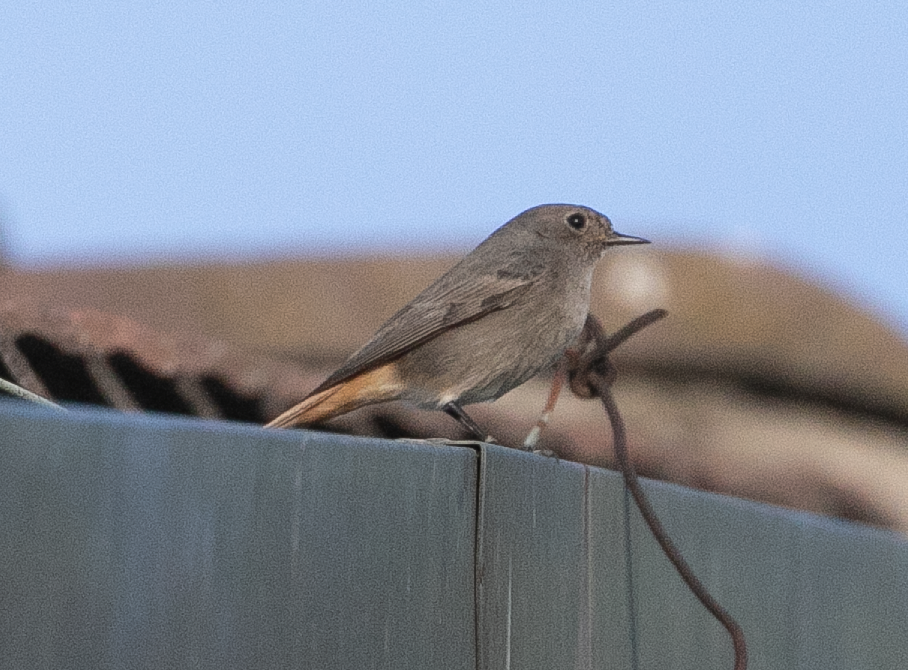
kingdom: Animalia
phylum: Chordata
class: Aves
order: Passeriformes
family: Muscicapidae
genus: Phoenicurus
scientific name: Phoenicurus ochruros
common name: Black redstart
